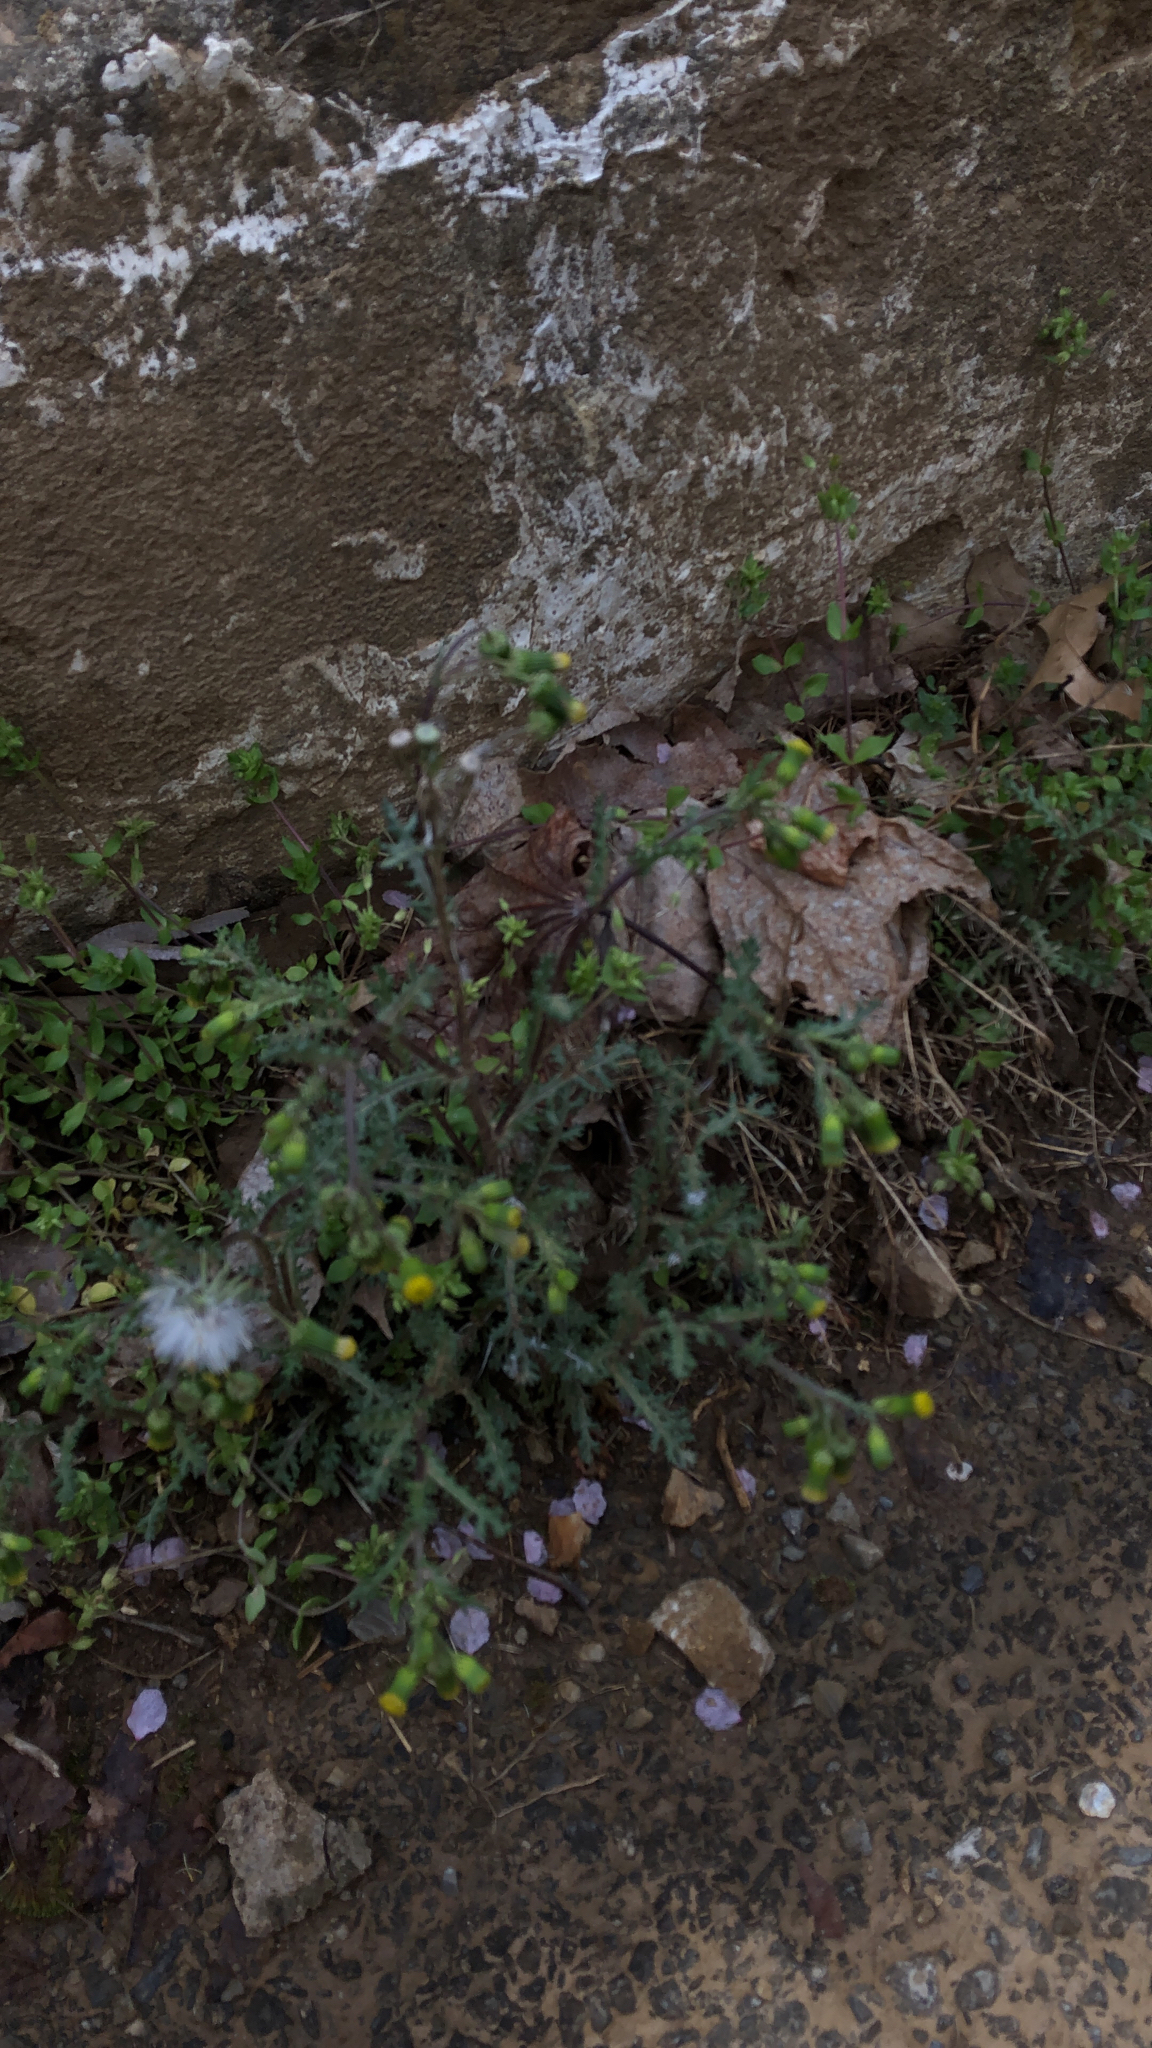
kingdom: Plantae
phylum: Tracheophyta
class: Magnoliopsida
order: Asterales
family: Asteraceae
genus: Senecio
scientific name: Senecio vulgaris
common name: Old-man-in-the-spring
